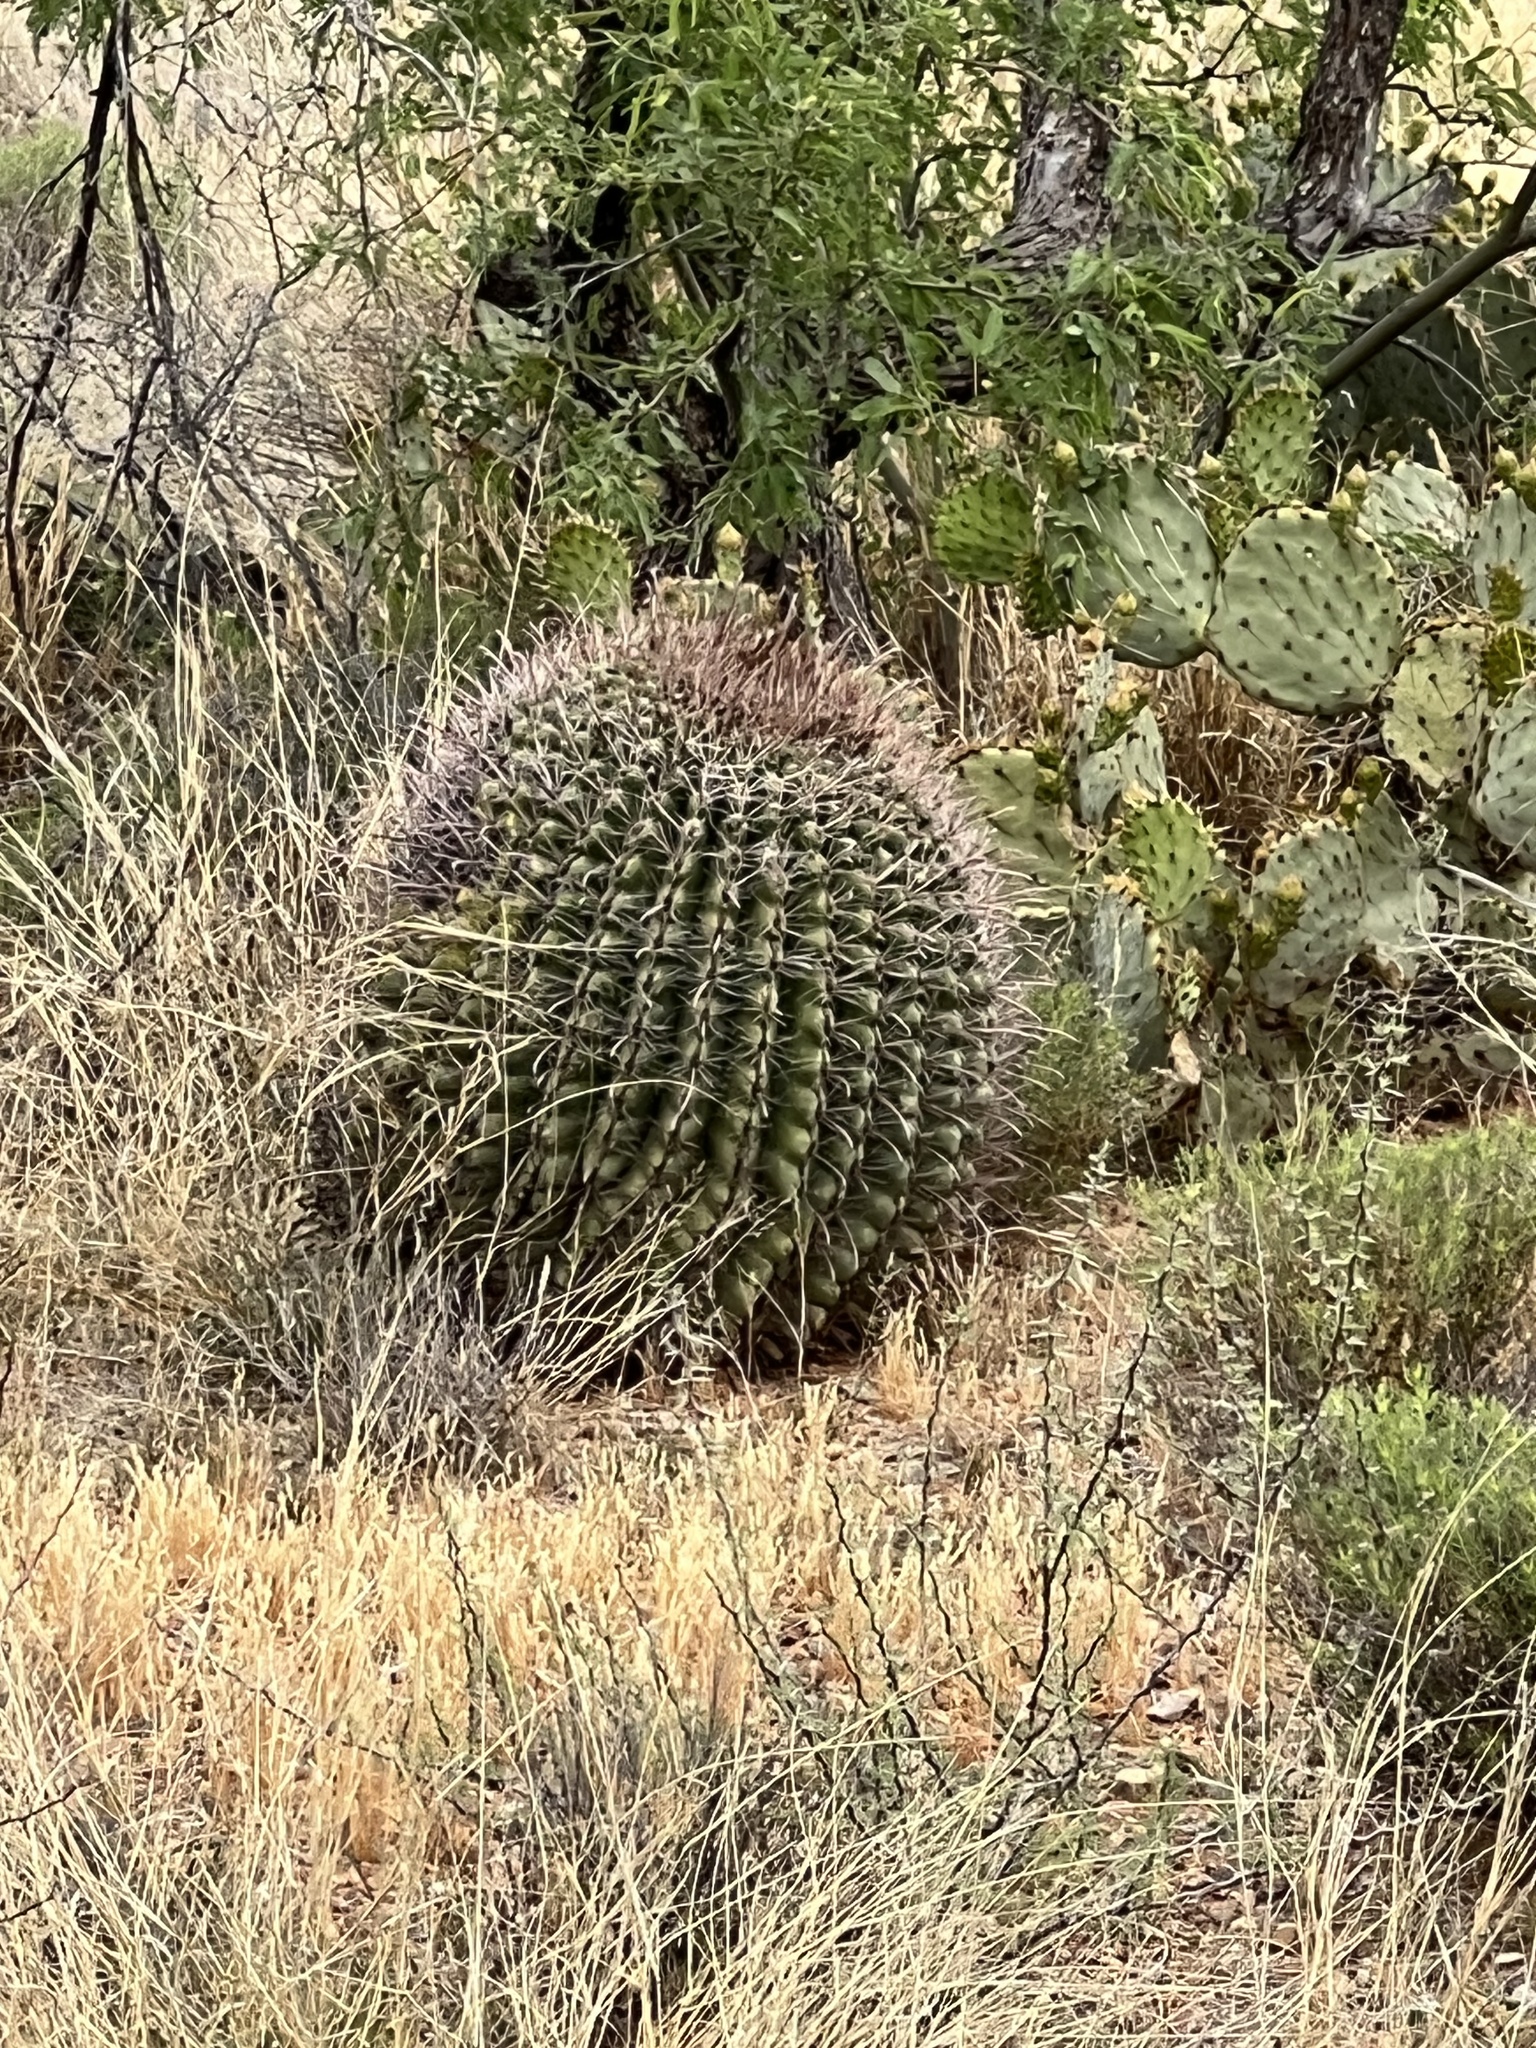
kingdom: Plantae
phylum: Tracheophyta
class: Magnoliopsida
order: Caryophyllales
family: Cactaceae
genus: Ferocactus
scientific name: Ferocactus wislizeni
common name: Candy barrel cactus
